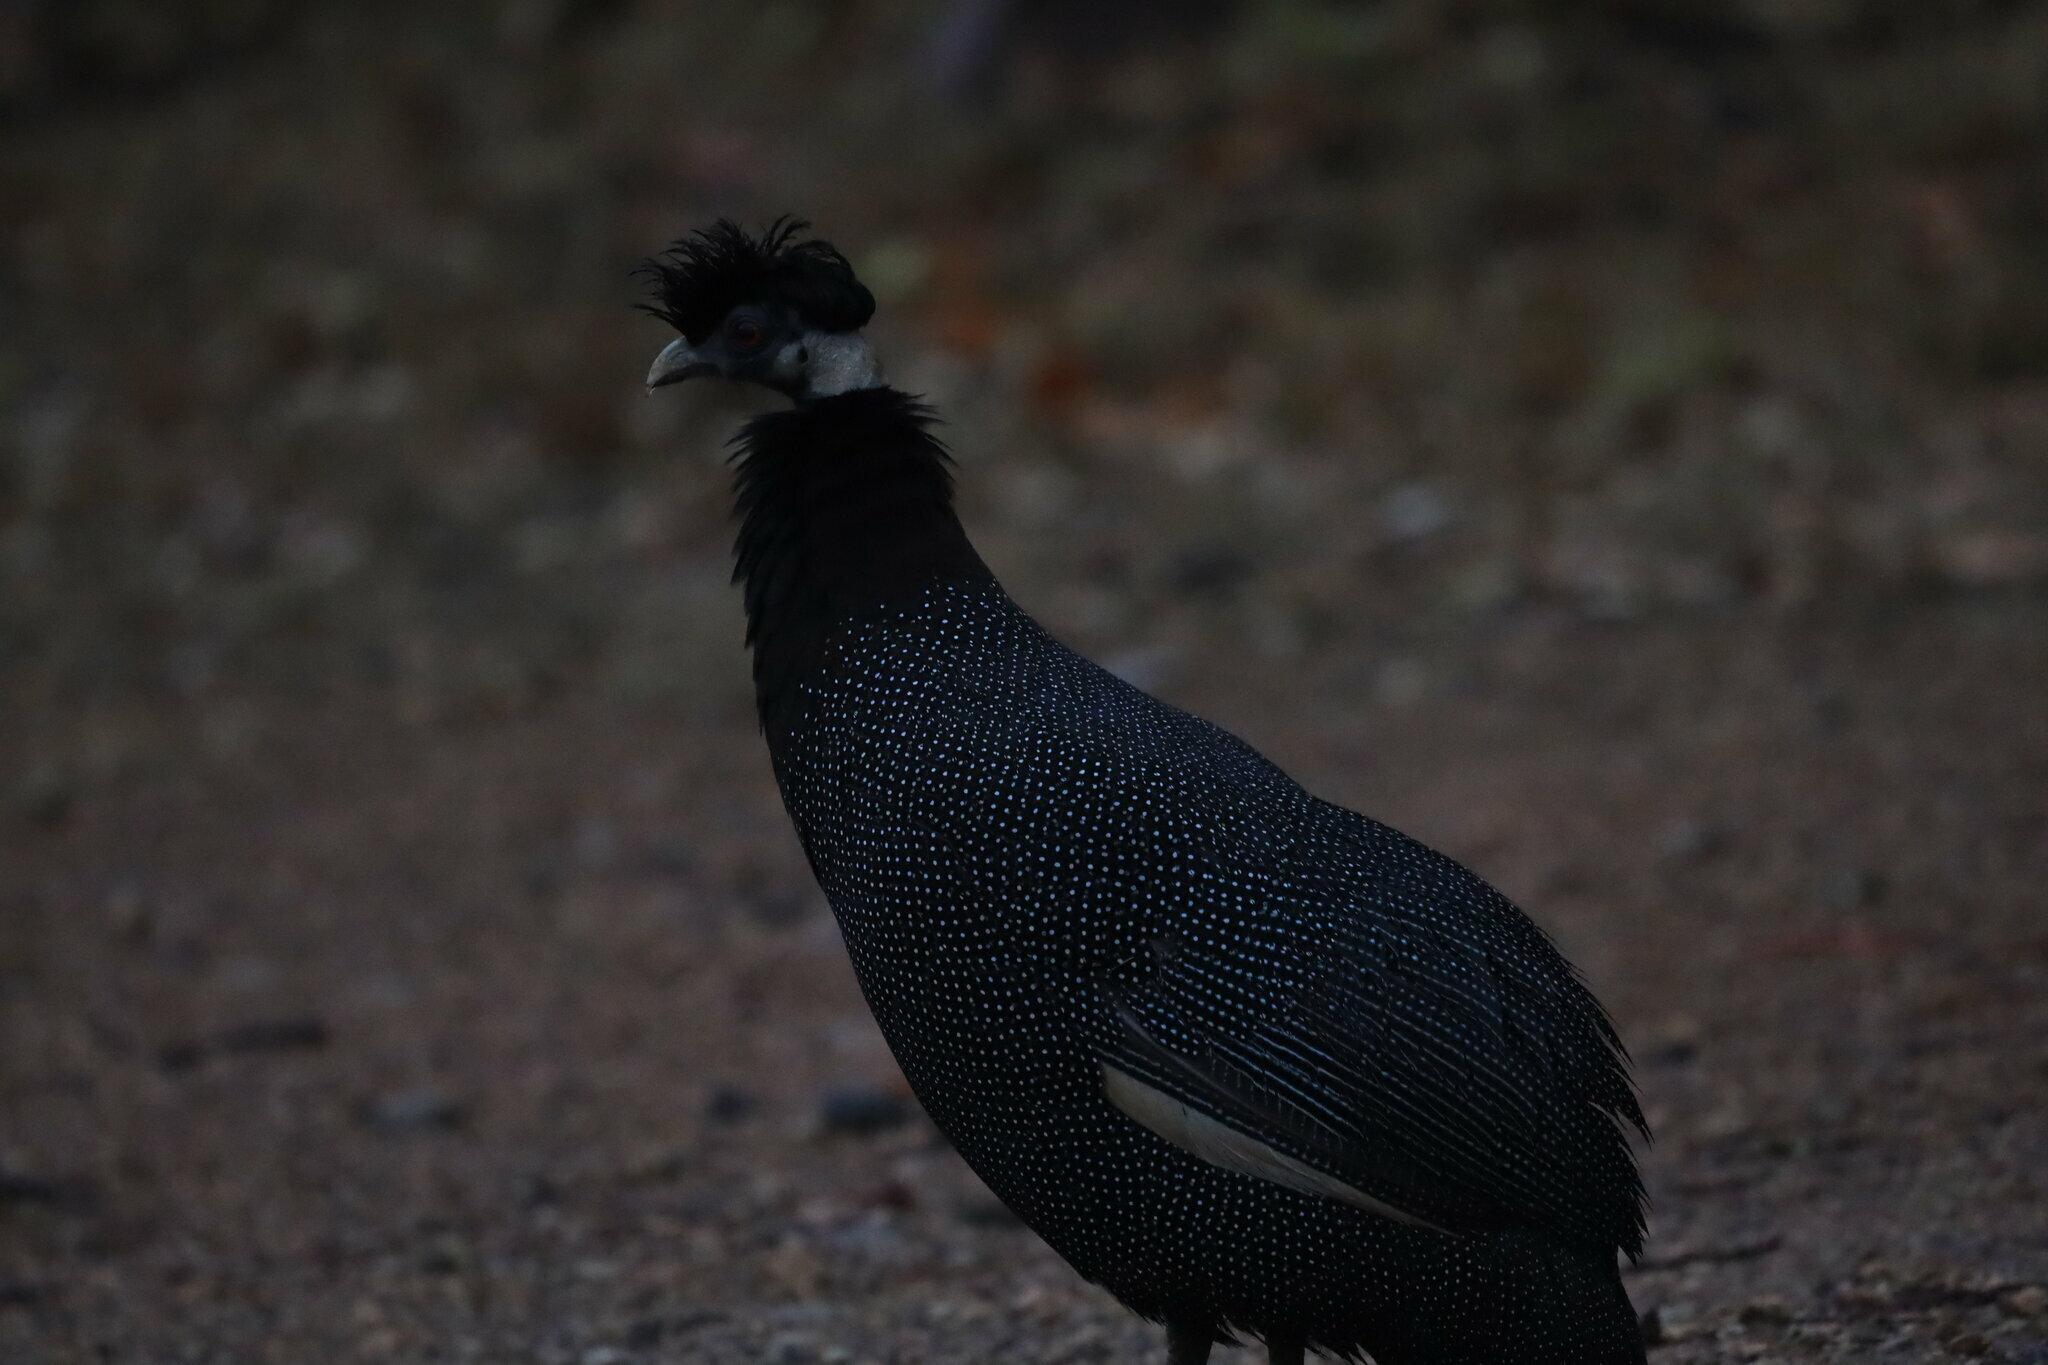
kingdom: Animalia
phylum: Chordata
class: Aves
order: Galliformes
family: Numididae
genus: Guttera
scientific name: Guttera pucherani
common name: Crested guineafowl
